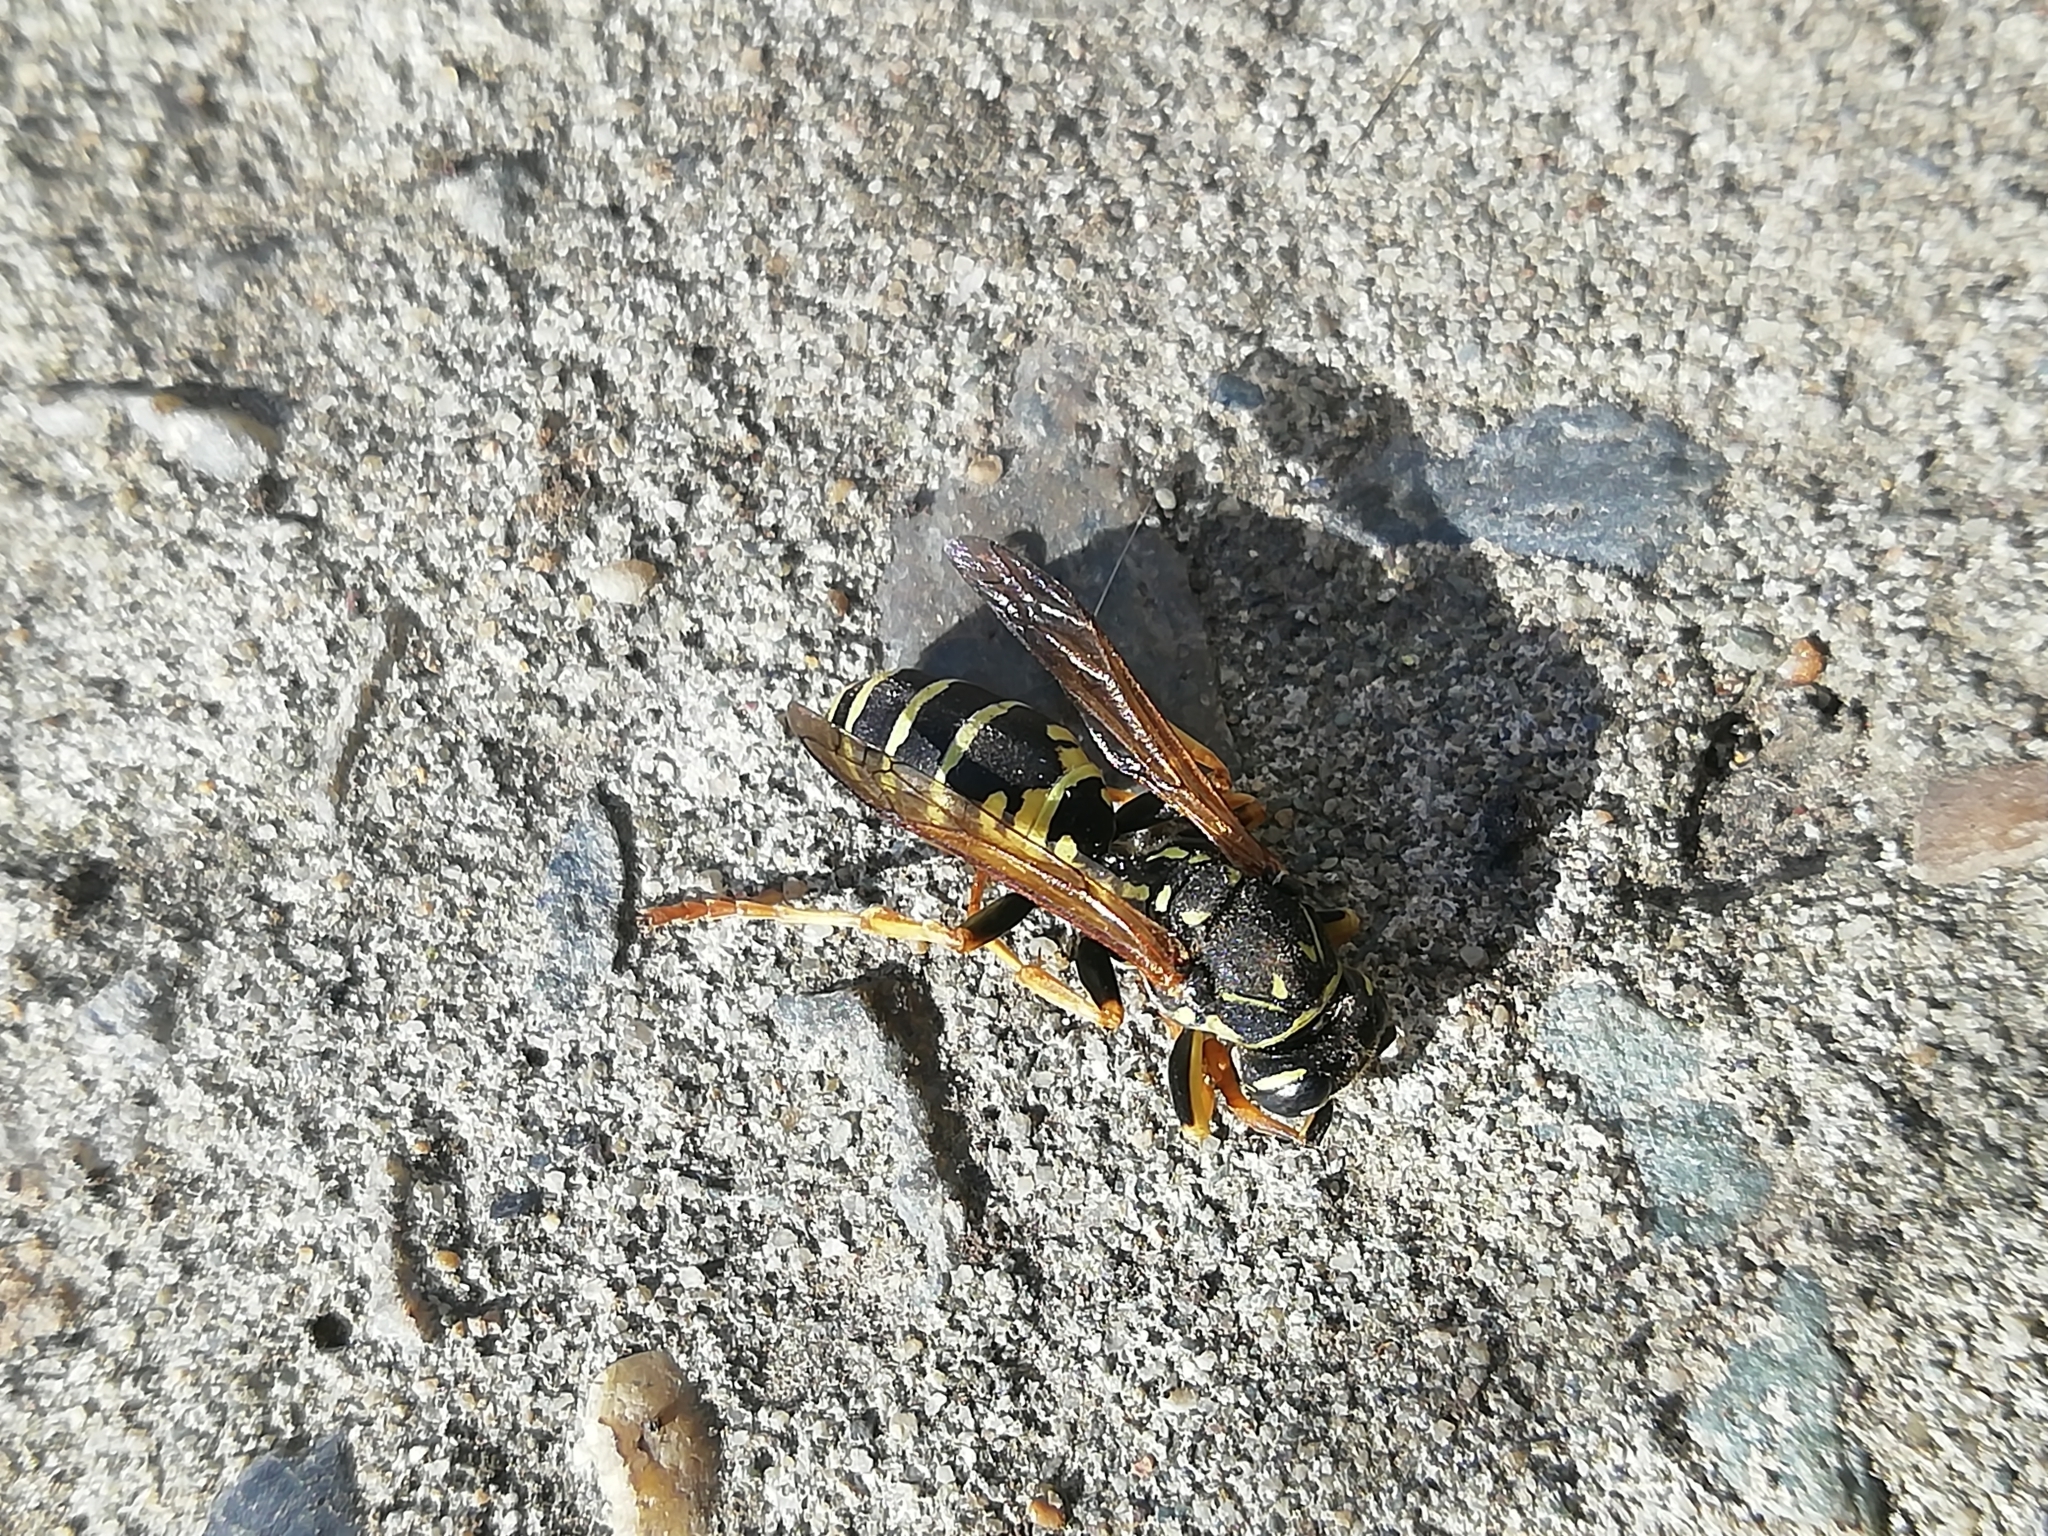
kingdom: Animalia
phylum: Arthropoda
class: Insecta
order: Hymenoptera
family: Eumenidae
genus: Polistes
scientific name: Polistes nimpha
